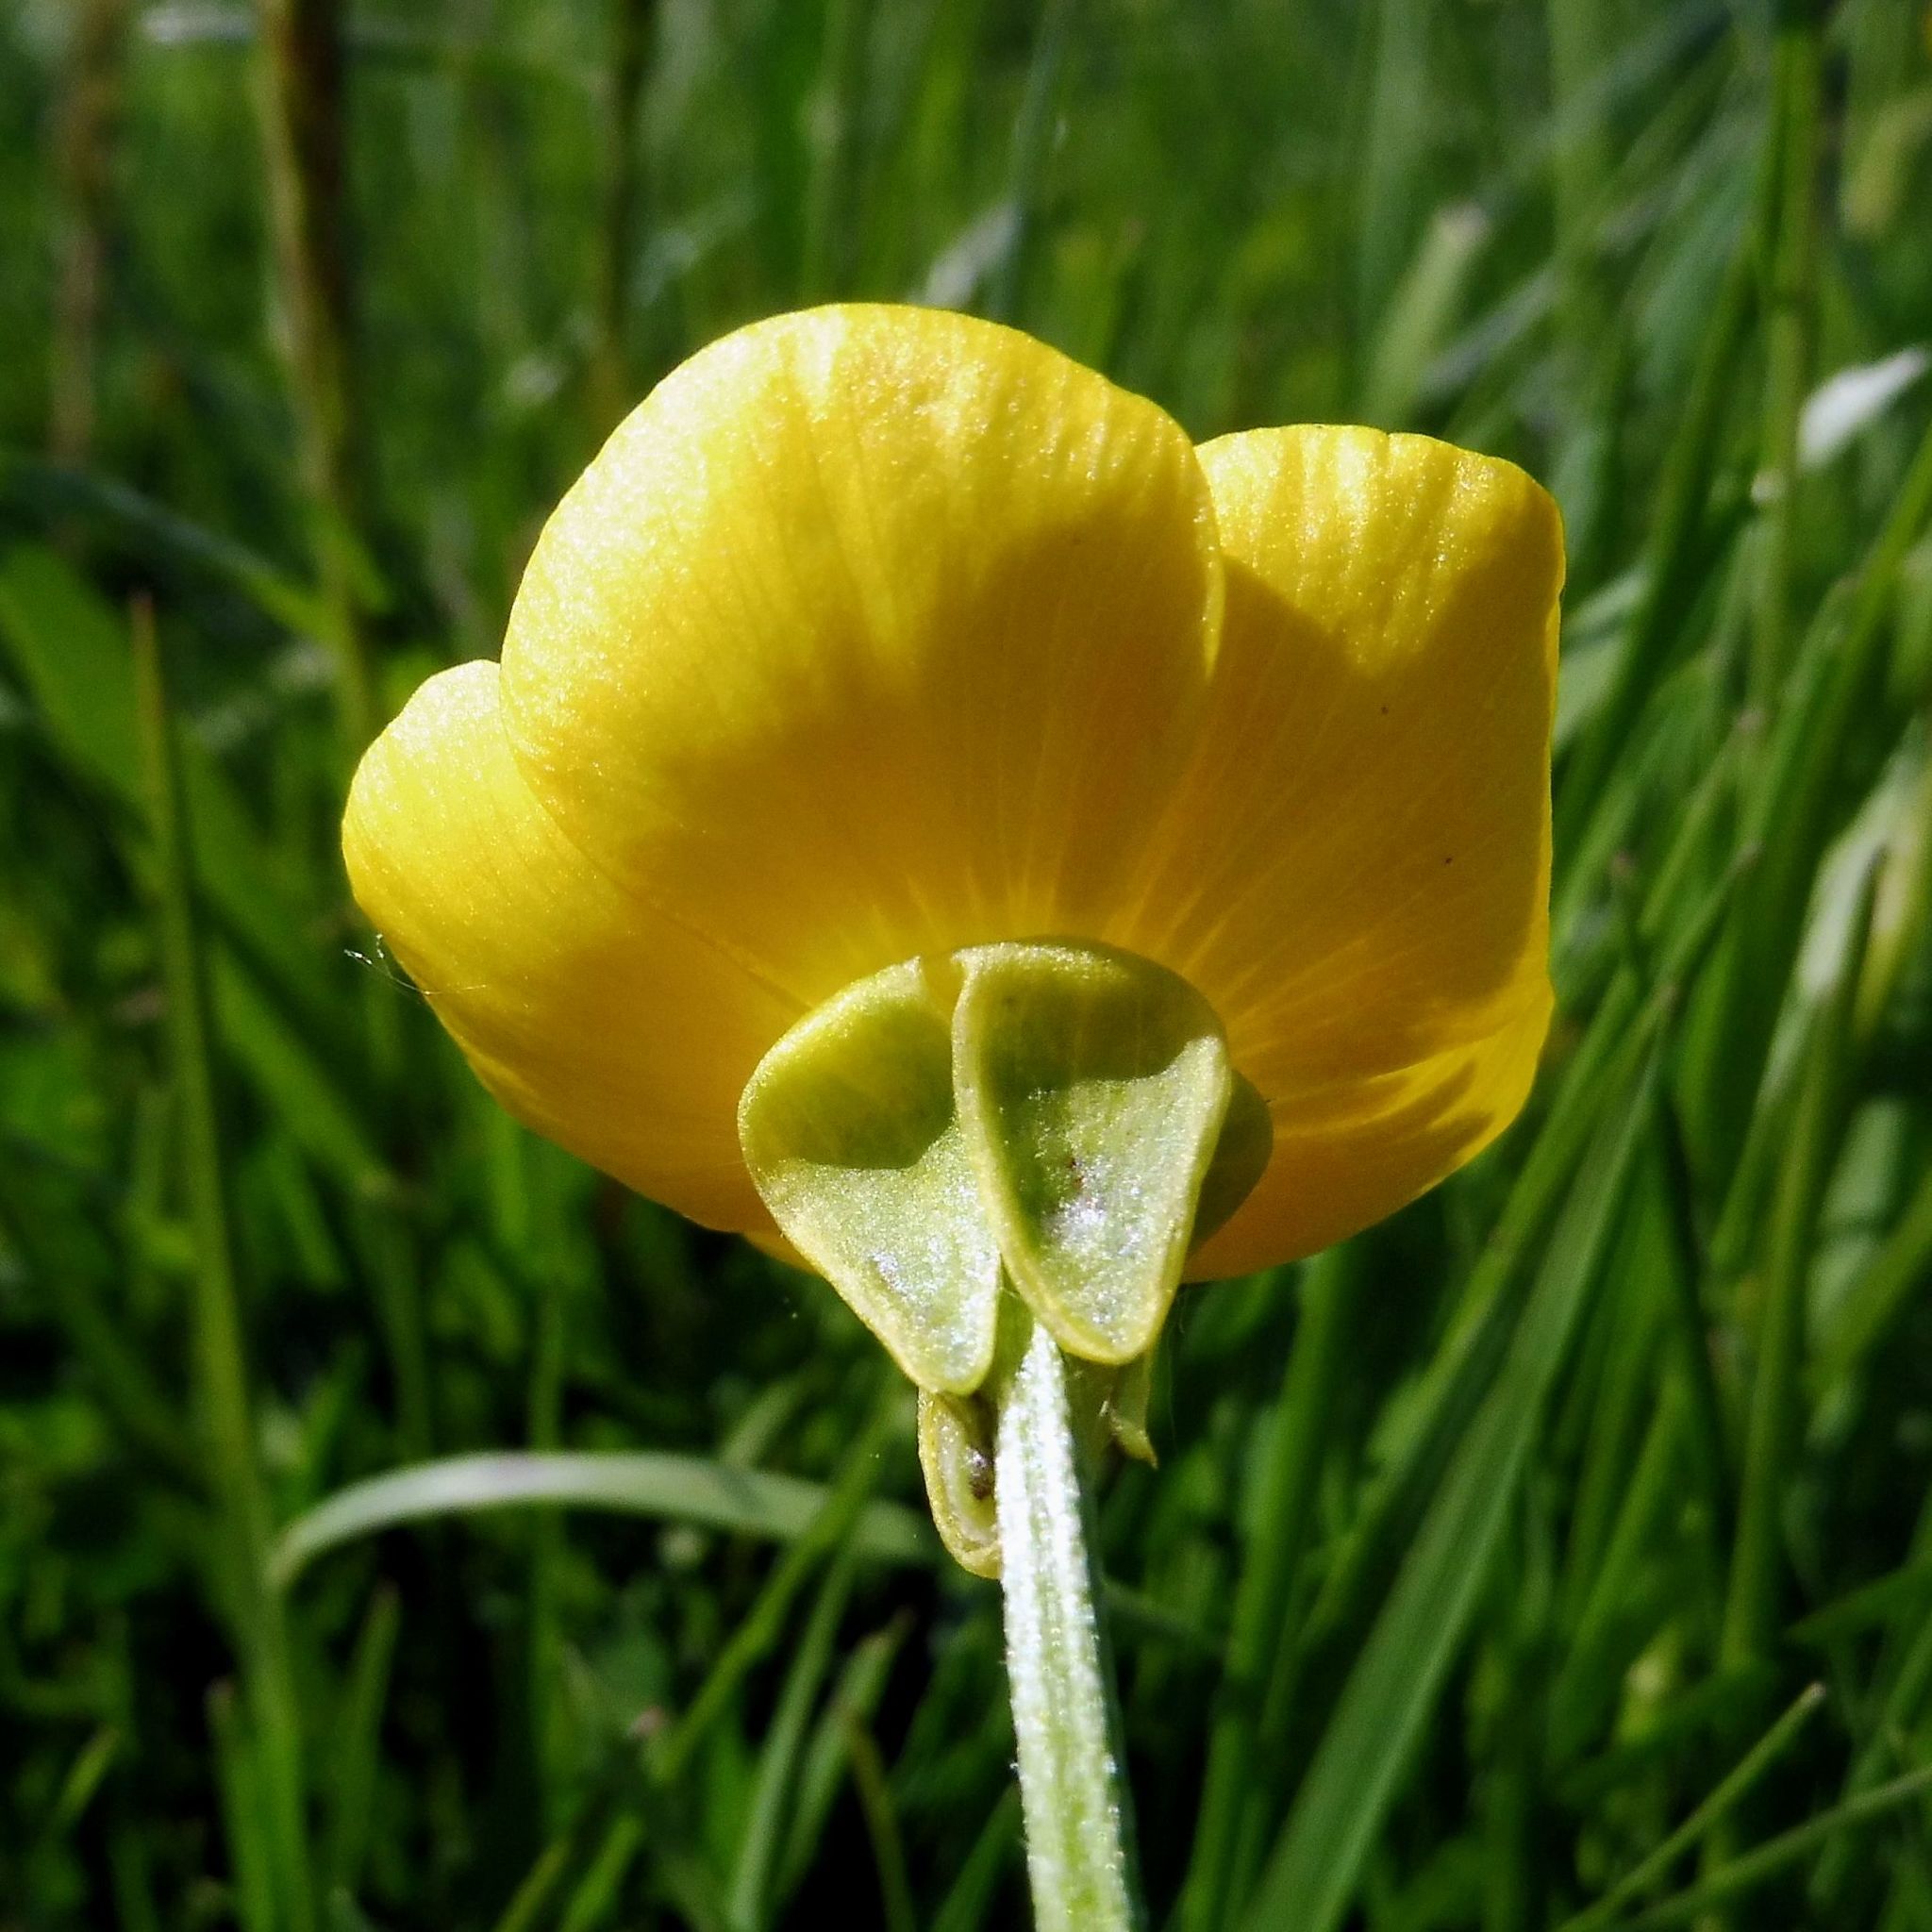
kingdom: Plantae
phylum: Tracheophyta
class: Magnoliopsida
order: Ranunculales
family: Ranunculaceae
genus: Ranunculus
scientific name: Ranunculus bulbosus
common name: Bulbous buttercup
